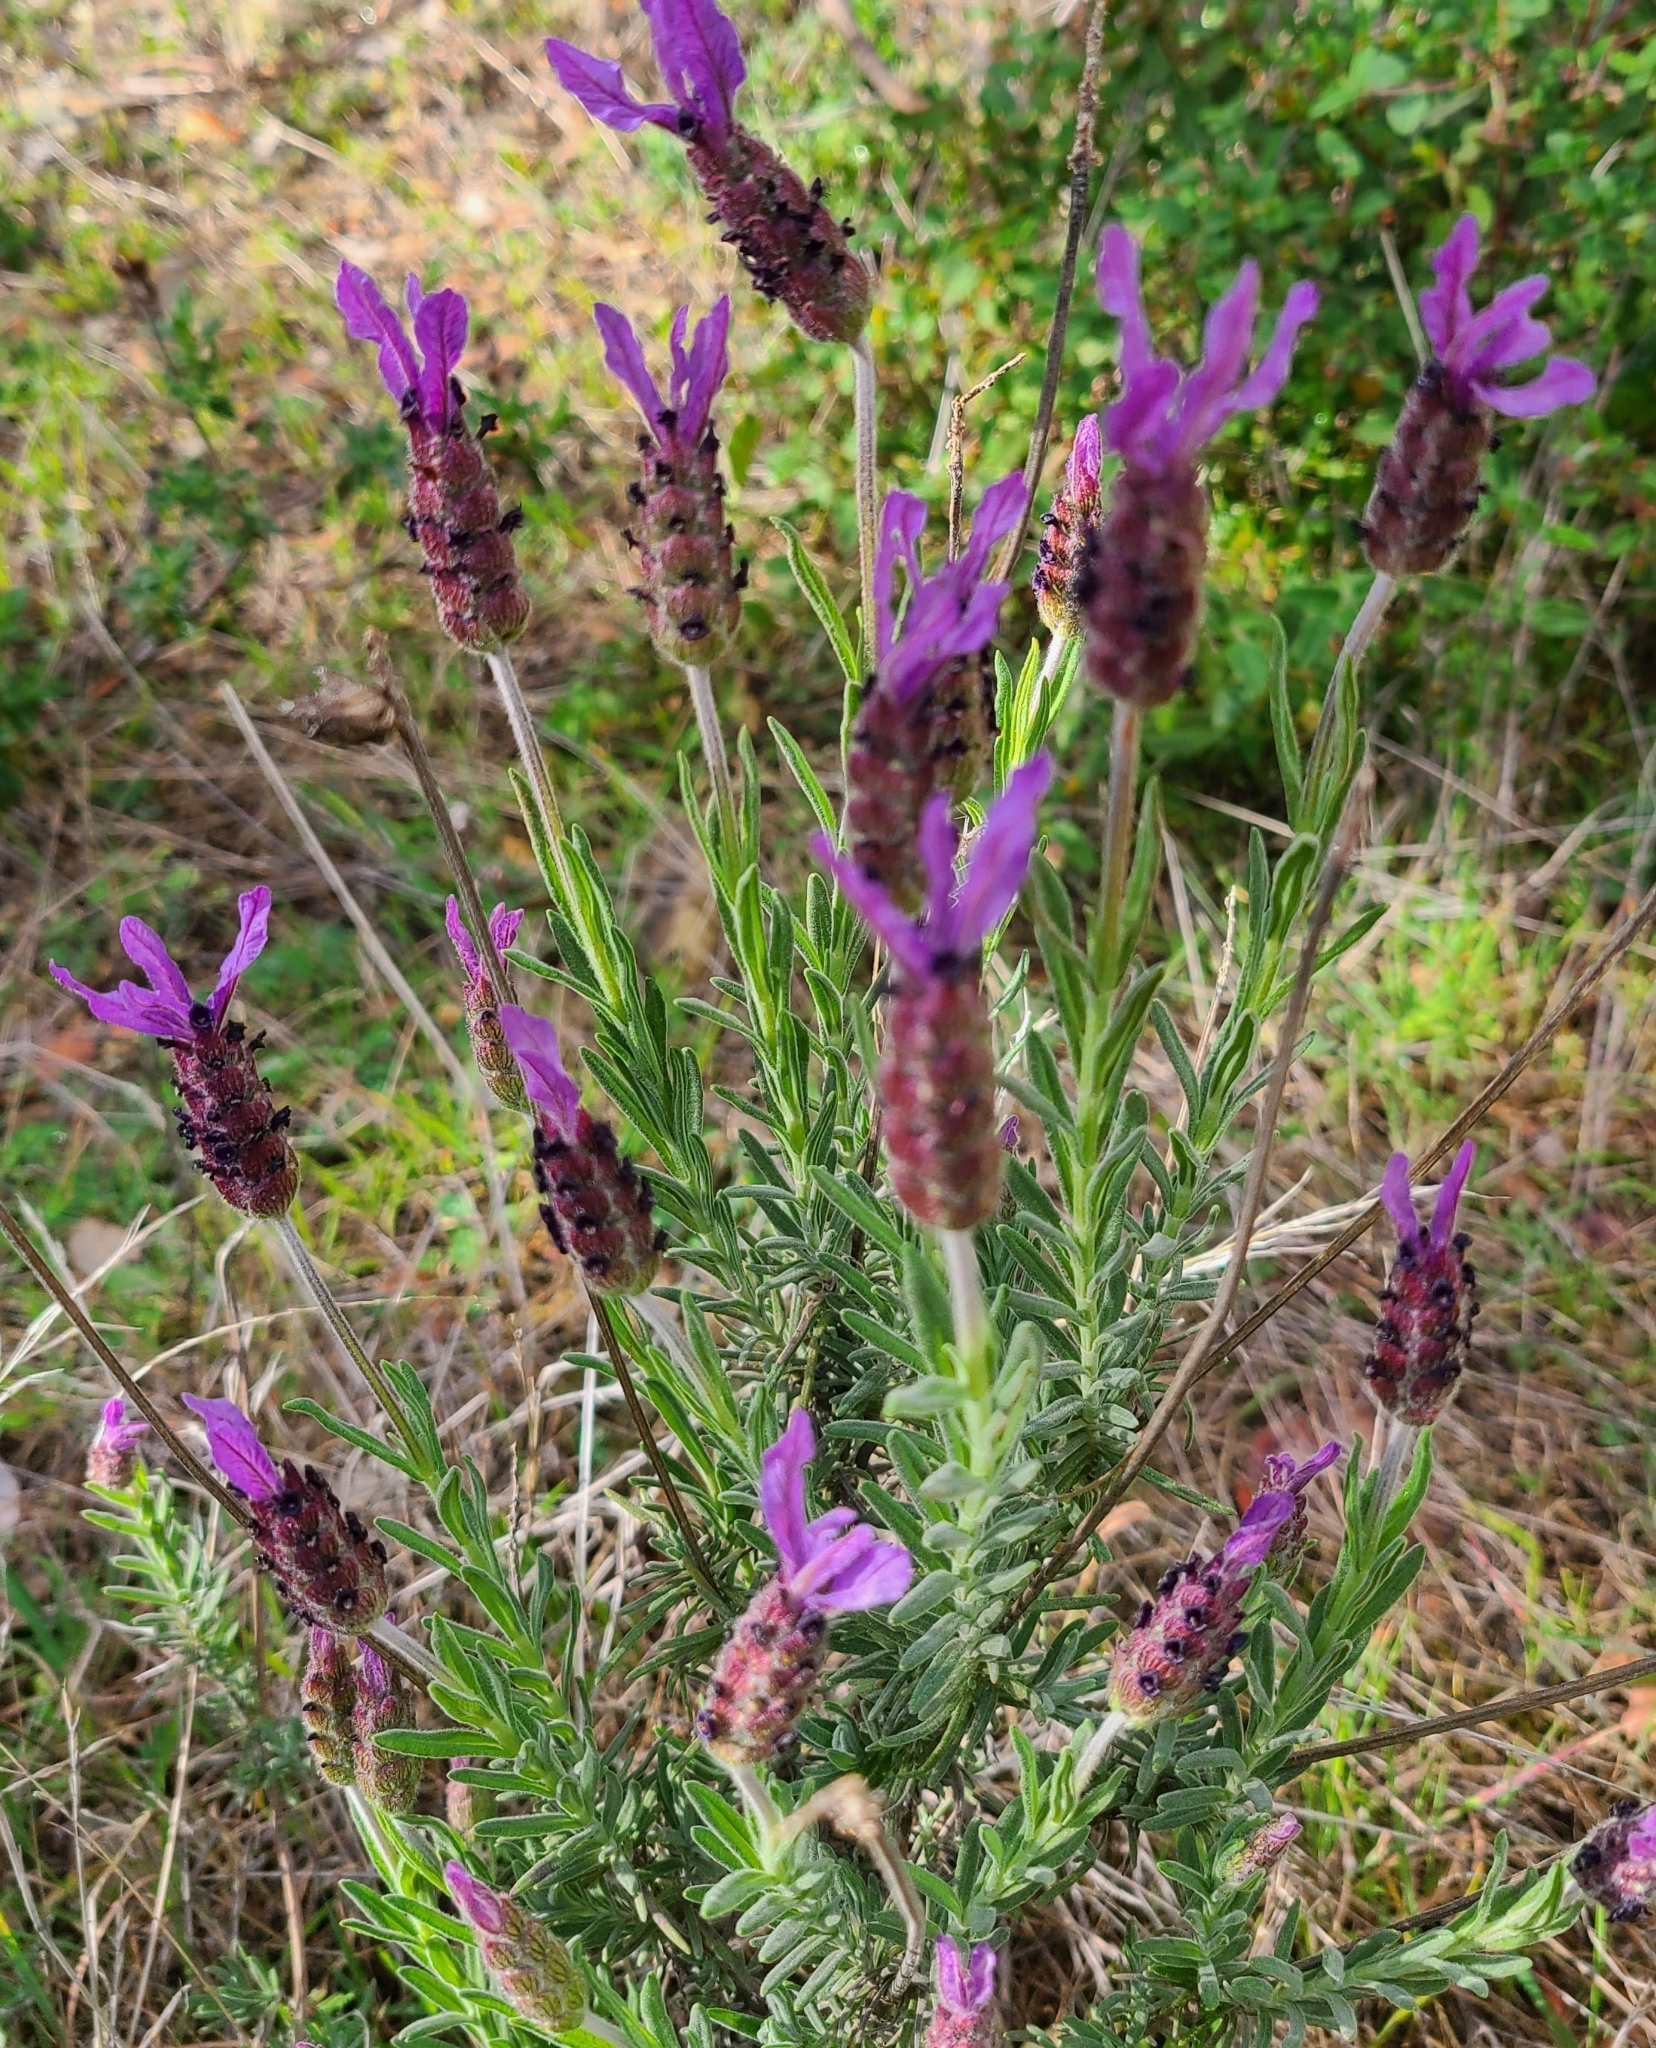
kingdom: Plantae
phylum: Tracheophyta
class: Magnoliopsida
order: Lamiales
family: Lamiaceae
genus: Lavandula
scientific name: Lavandula pedunculata
